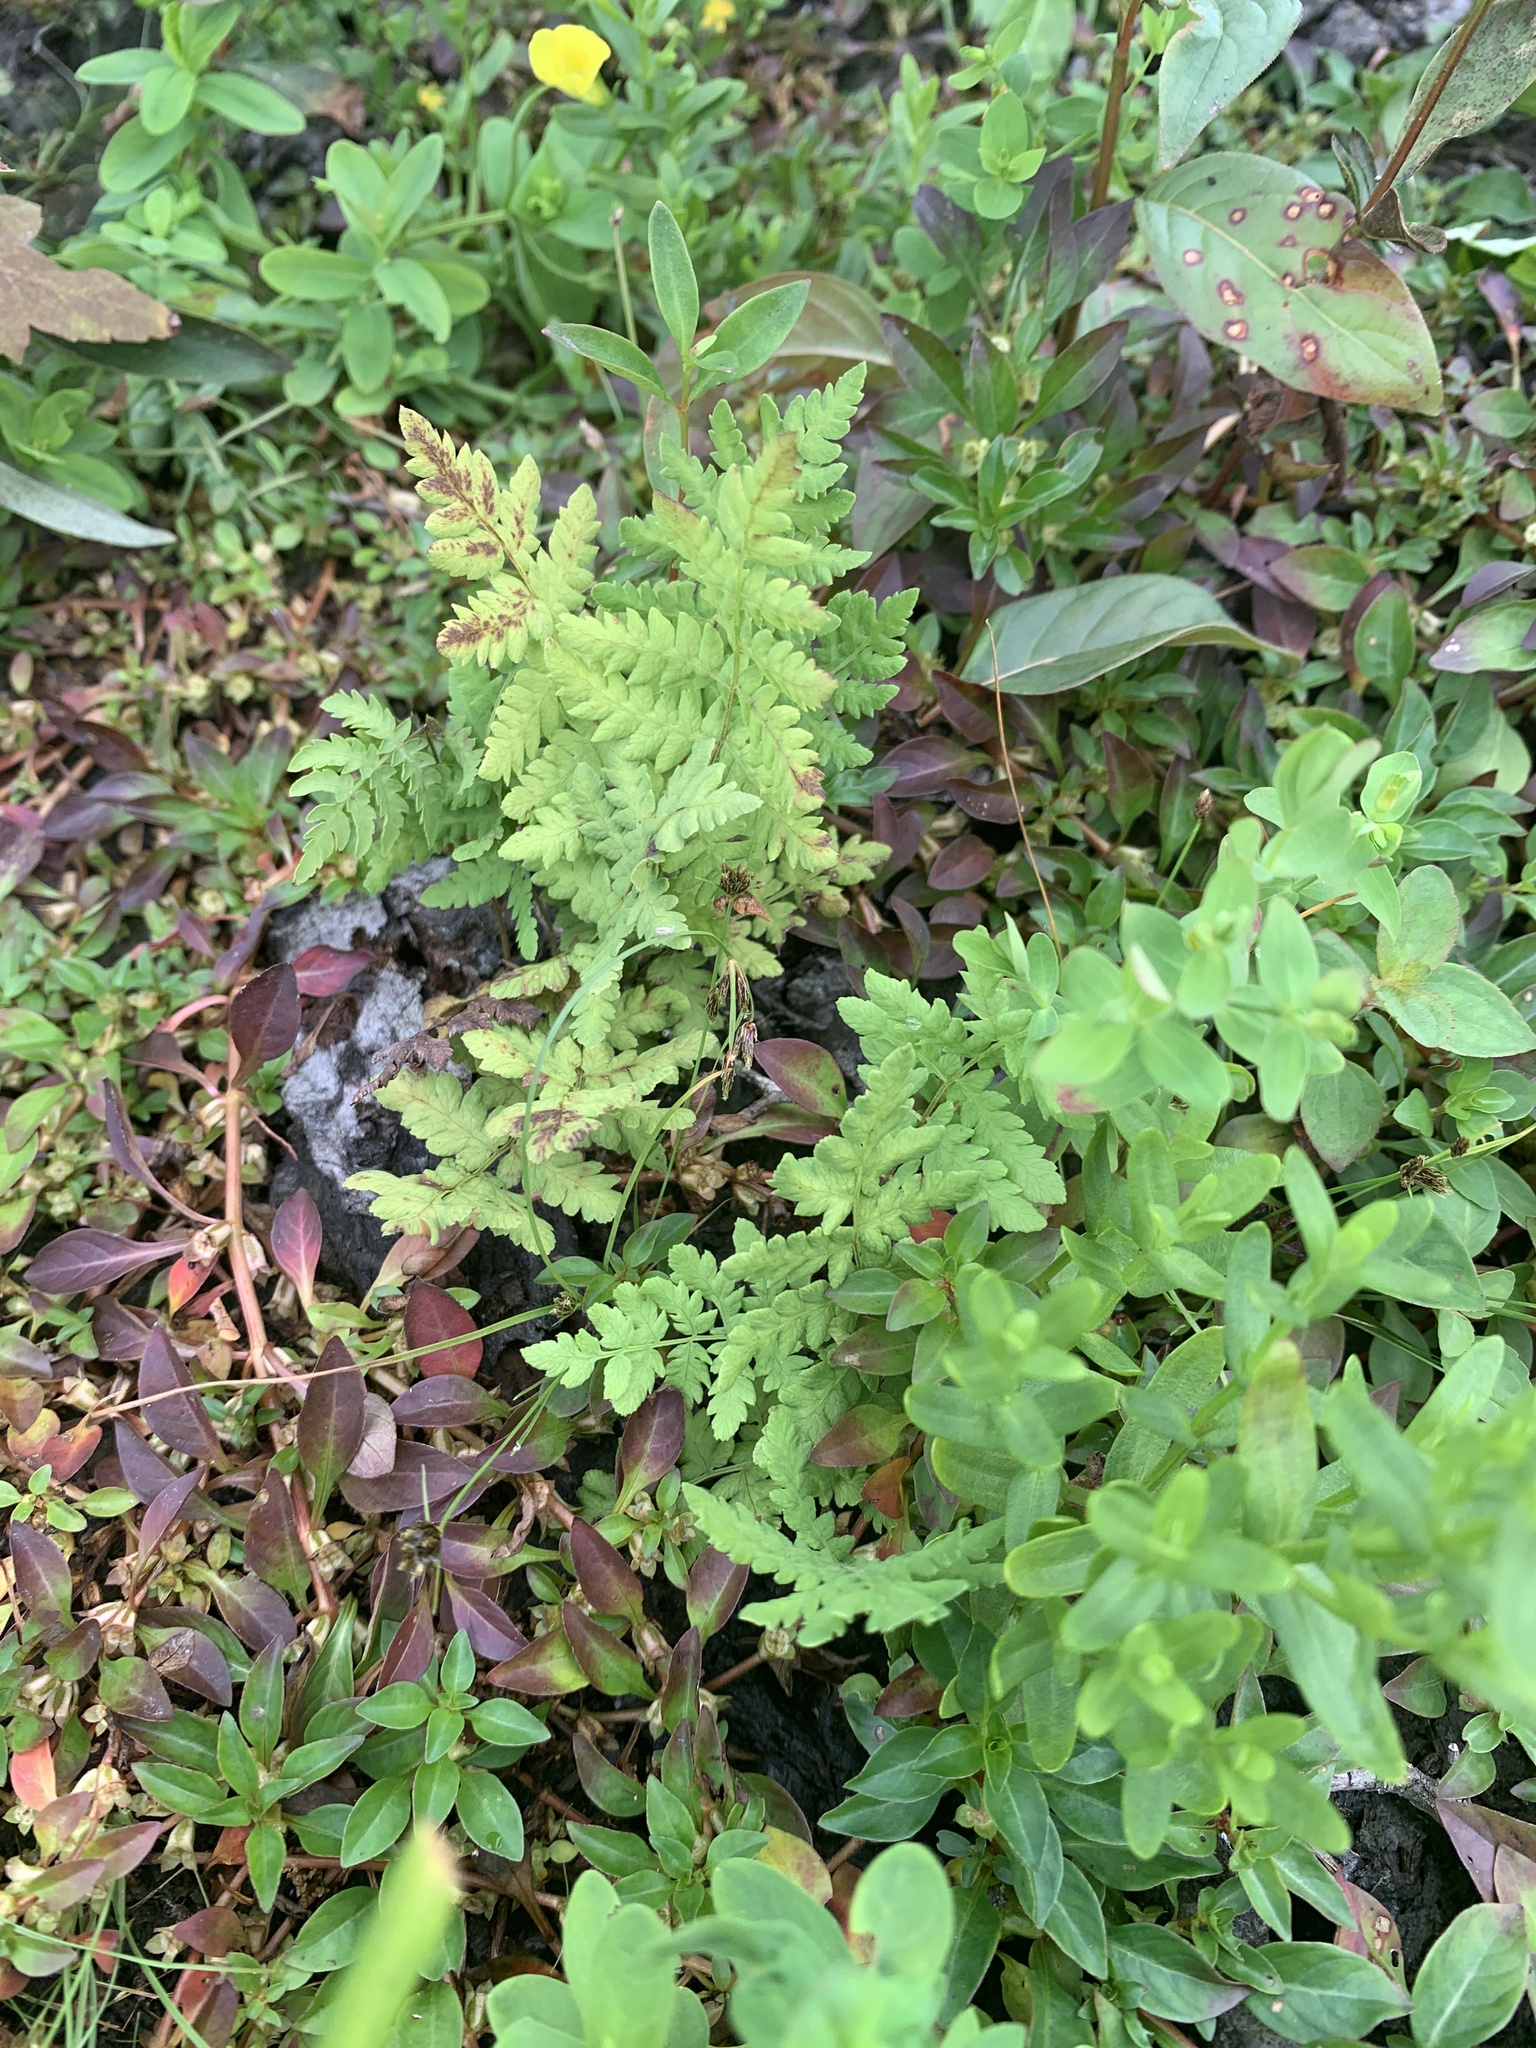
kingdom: Plantae
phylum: Tracheophyta
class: Polypodiopsida
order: Polypodiales
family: Thelypteridaceae
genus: Thelypteris
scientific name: Thelypteris palustris
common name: Marsh fern
